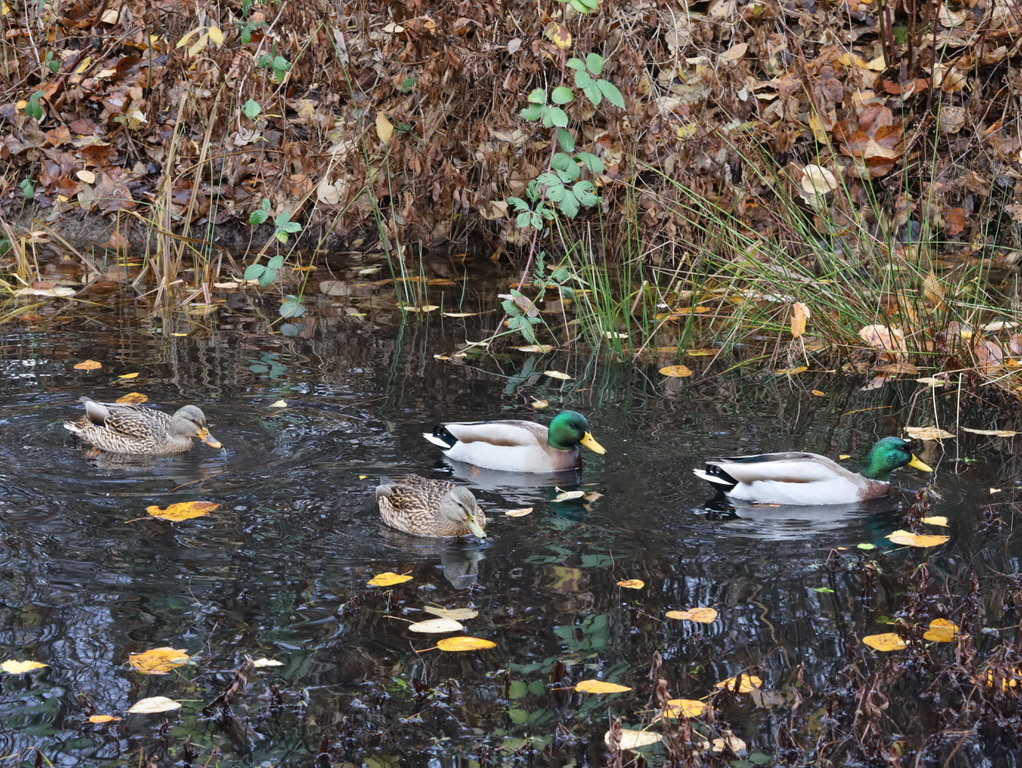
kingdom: Animalia
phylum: Chordata
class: Aves
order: Anseriformes
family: Anatidae
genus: Anas
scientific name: Anas platyrhynchos
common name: Mallard
